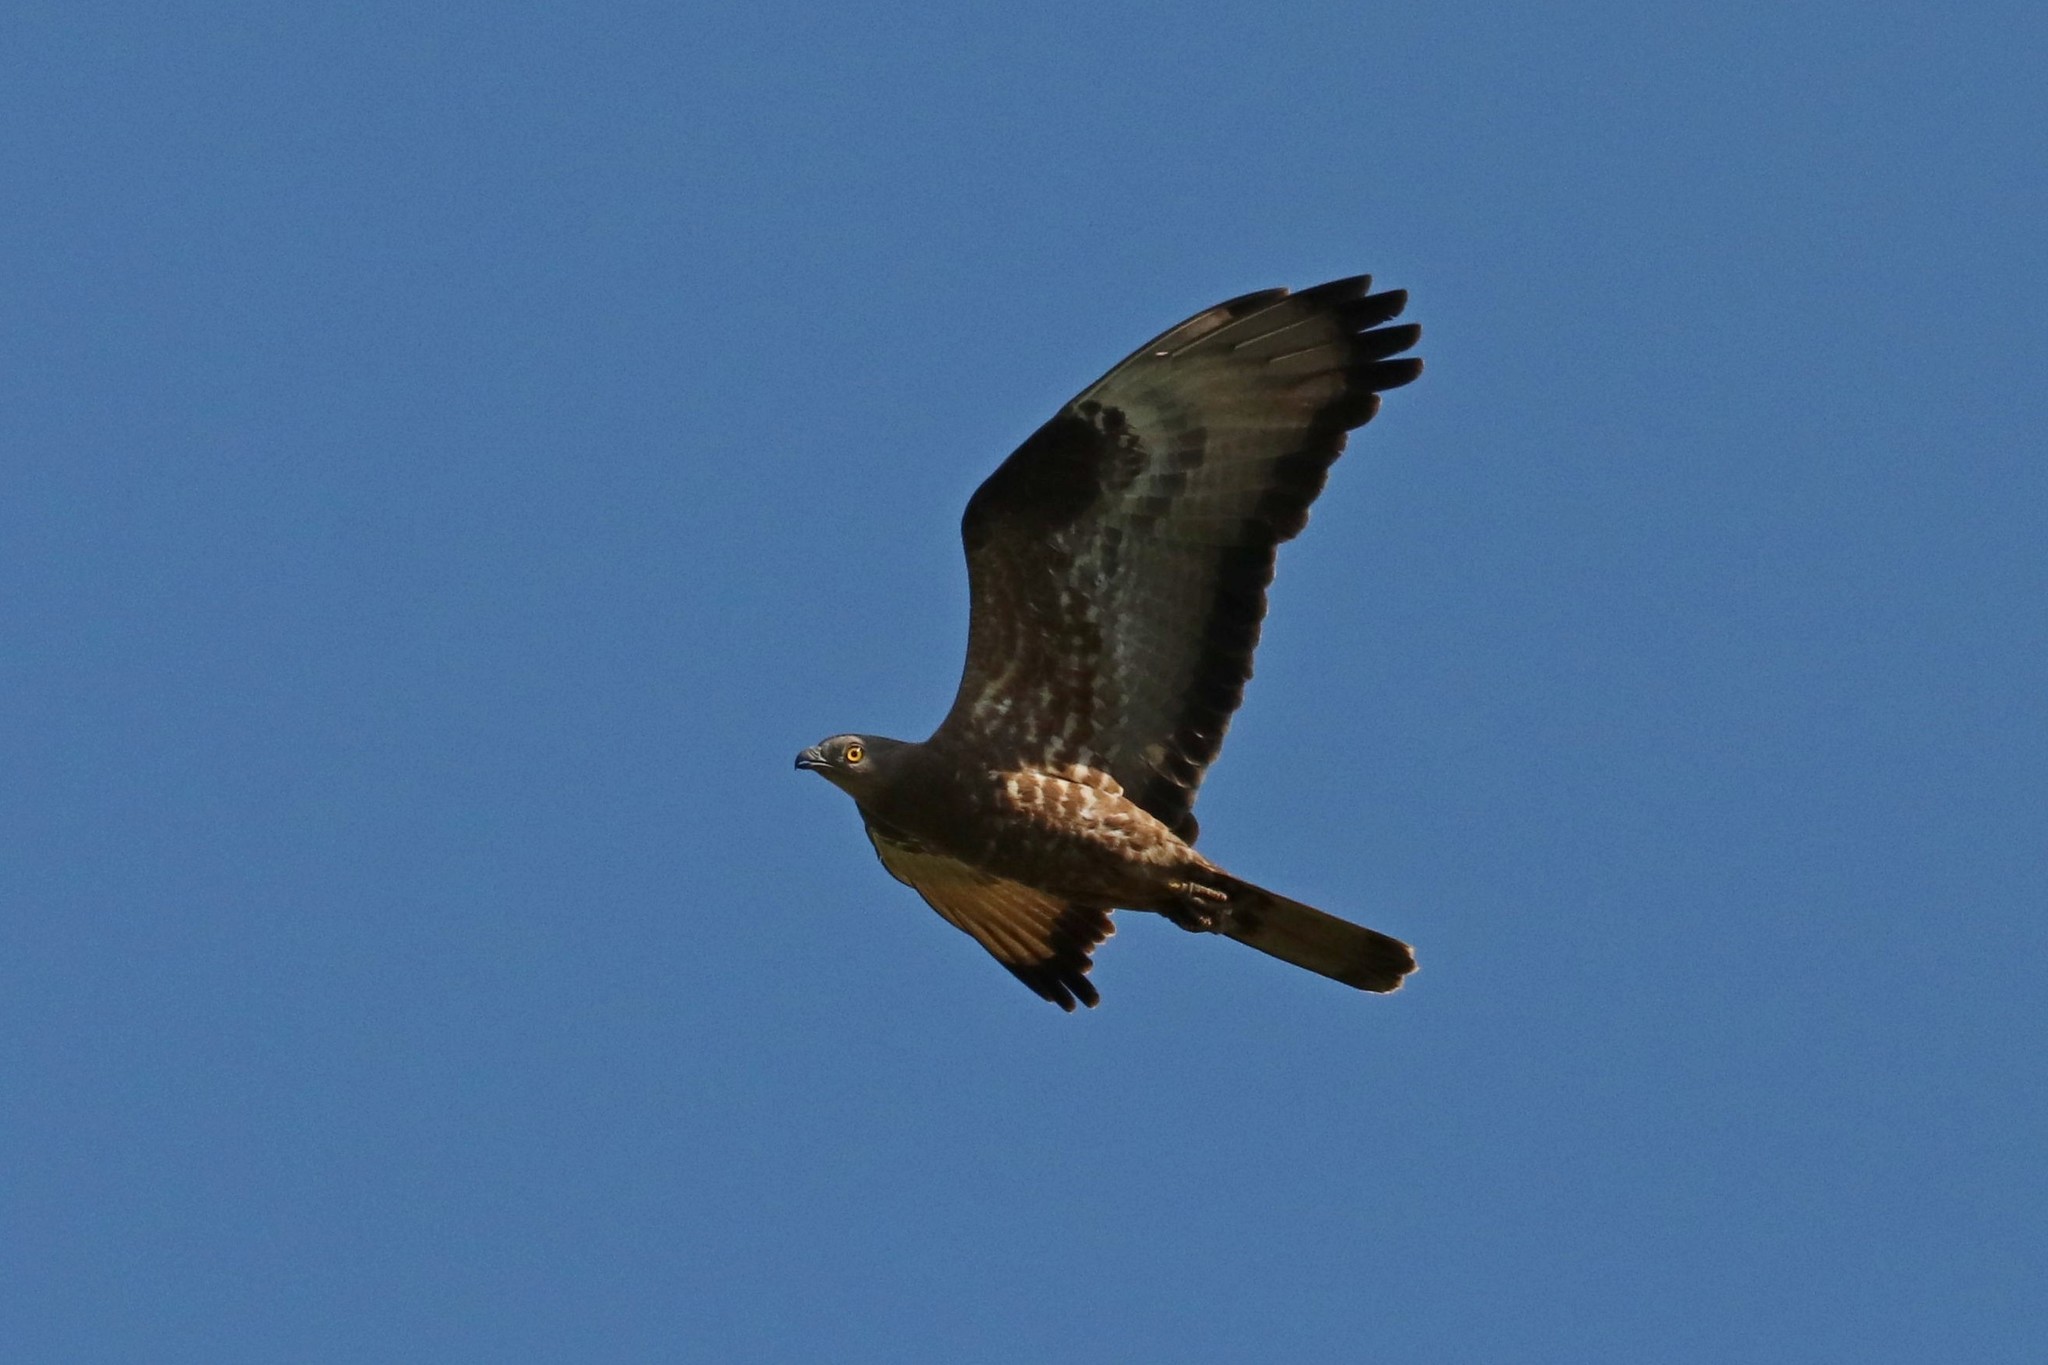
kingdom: Animalia
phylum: Chordata
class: Aves
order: Accipitriformes
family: Accipitridae
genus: Pernis
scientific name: Pernis apivorus
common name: European honey buzzard
